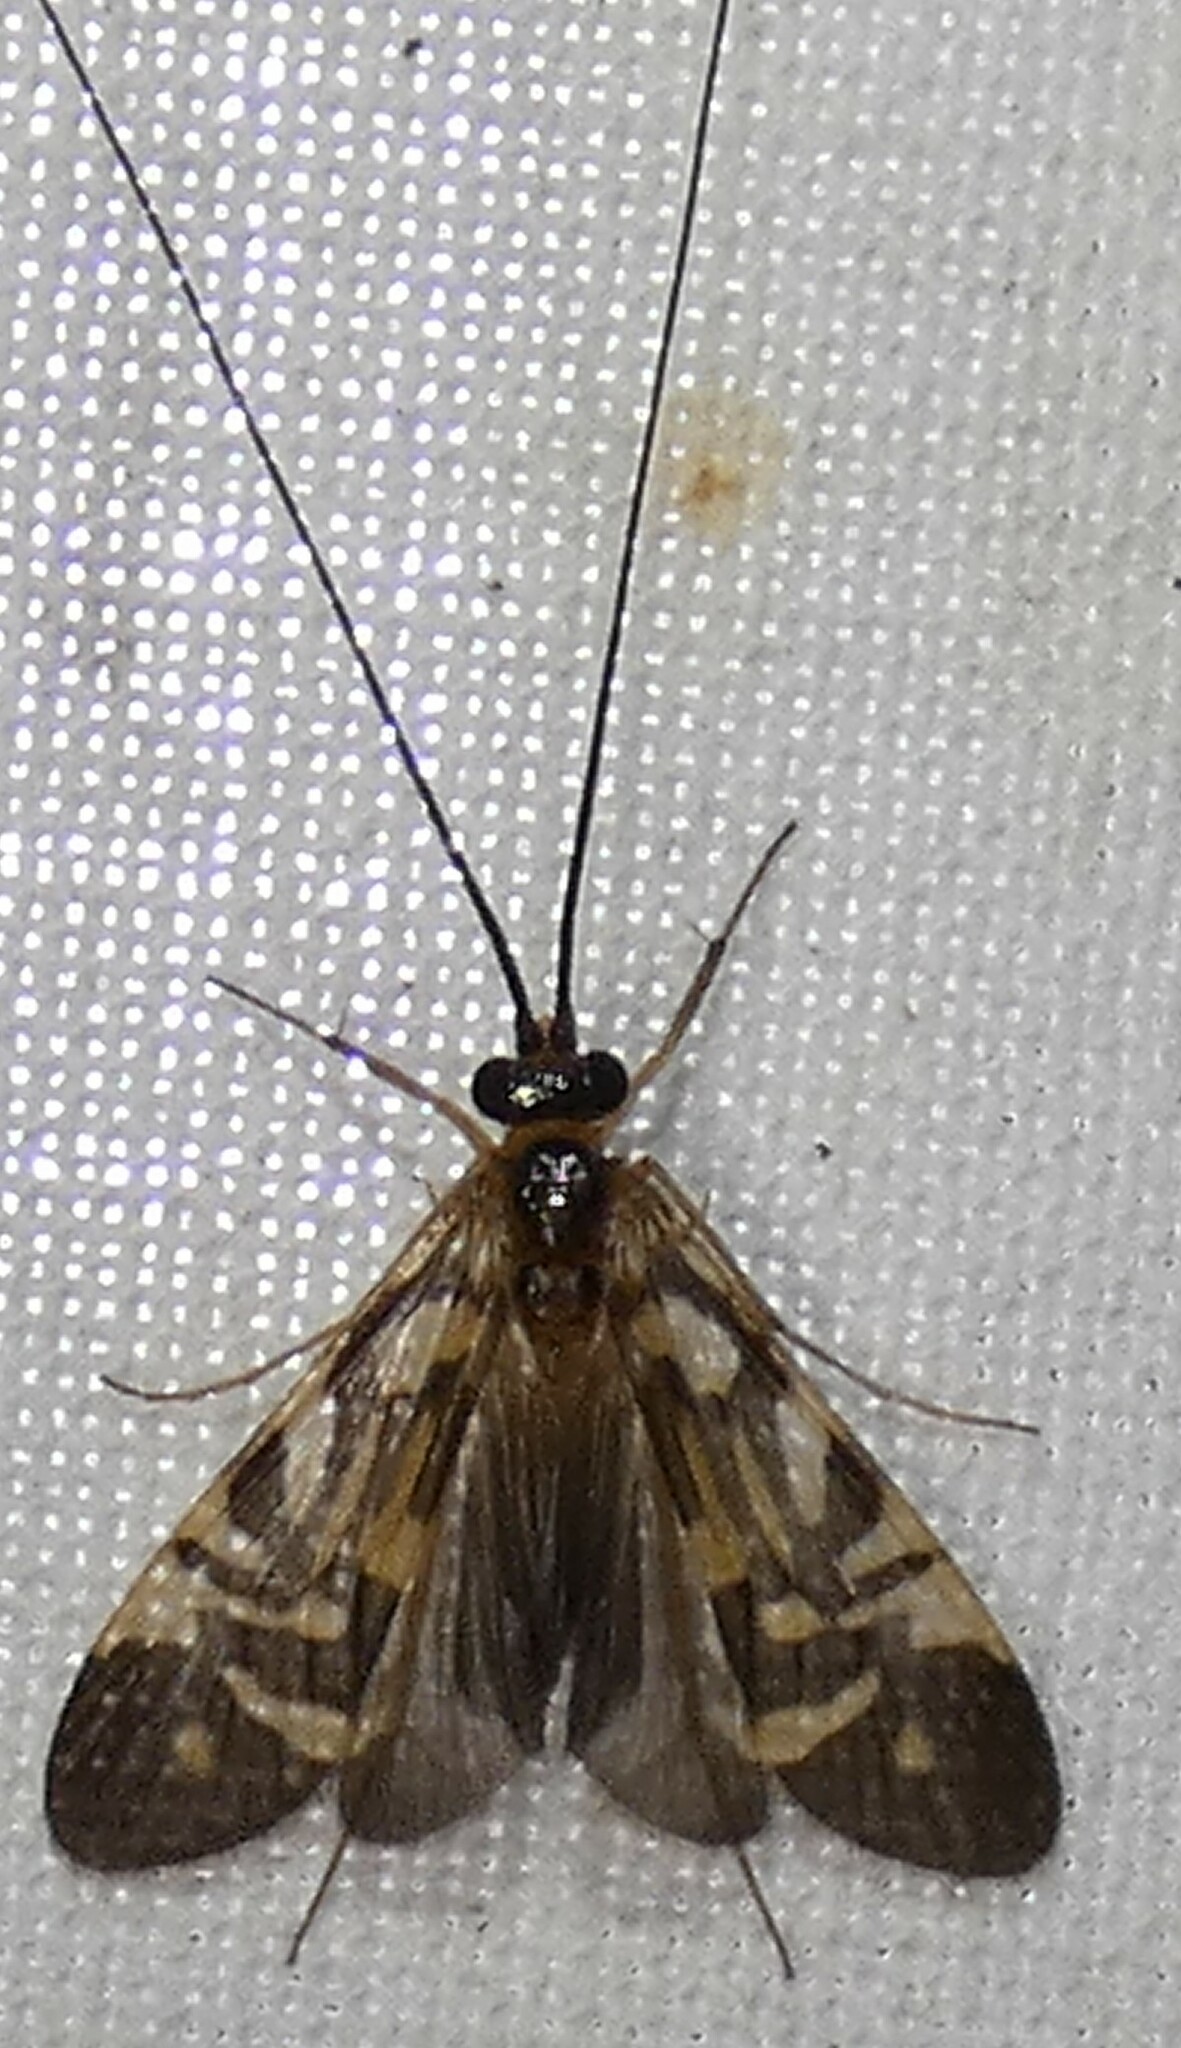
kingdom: Animalia
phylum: Arthropoda
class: Insecta
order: Trichoptera
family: Hydropsychidae
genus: Macrostemum
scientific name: Macrostemum carolina
